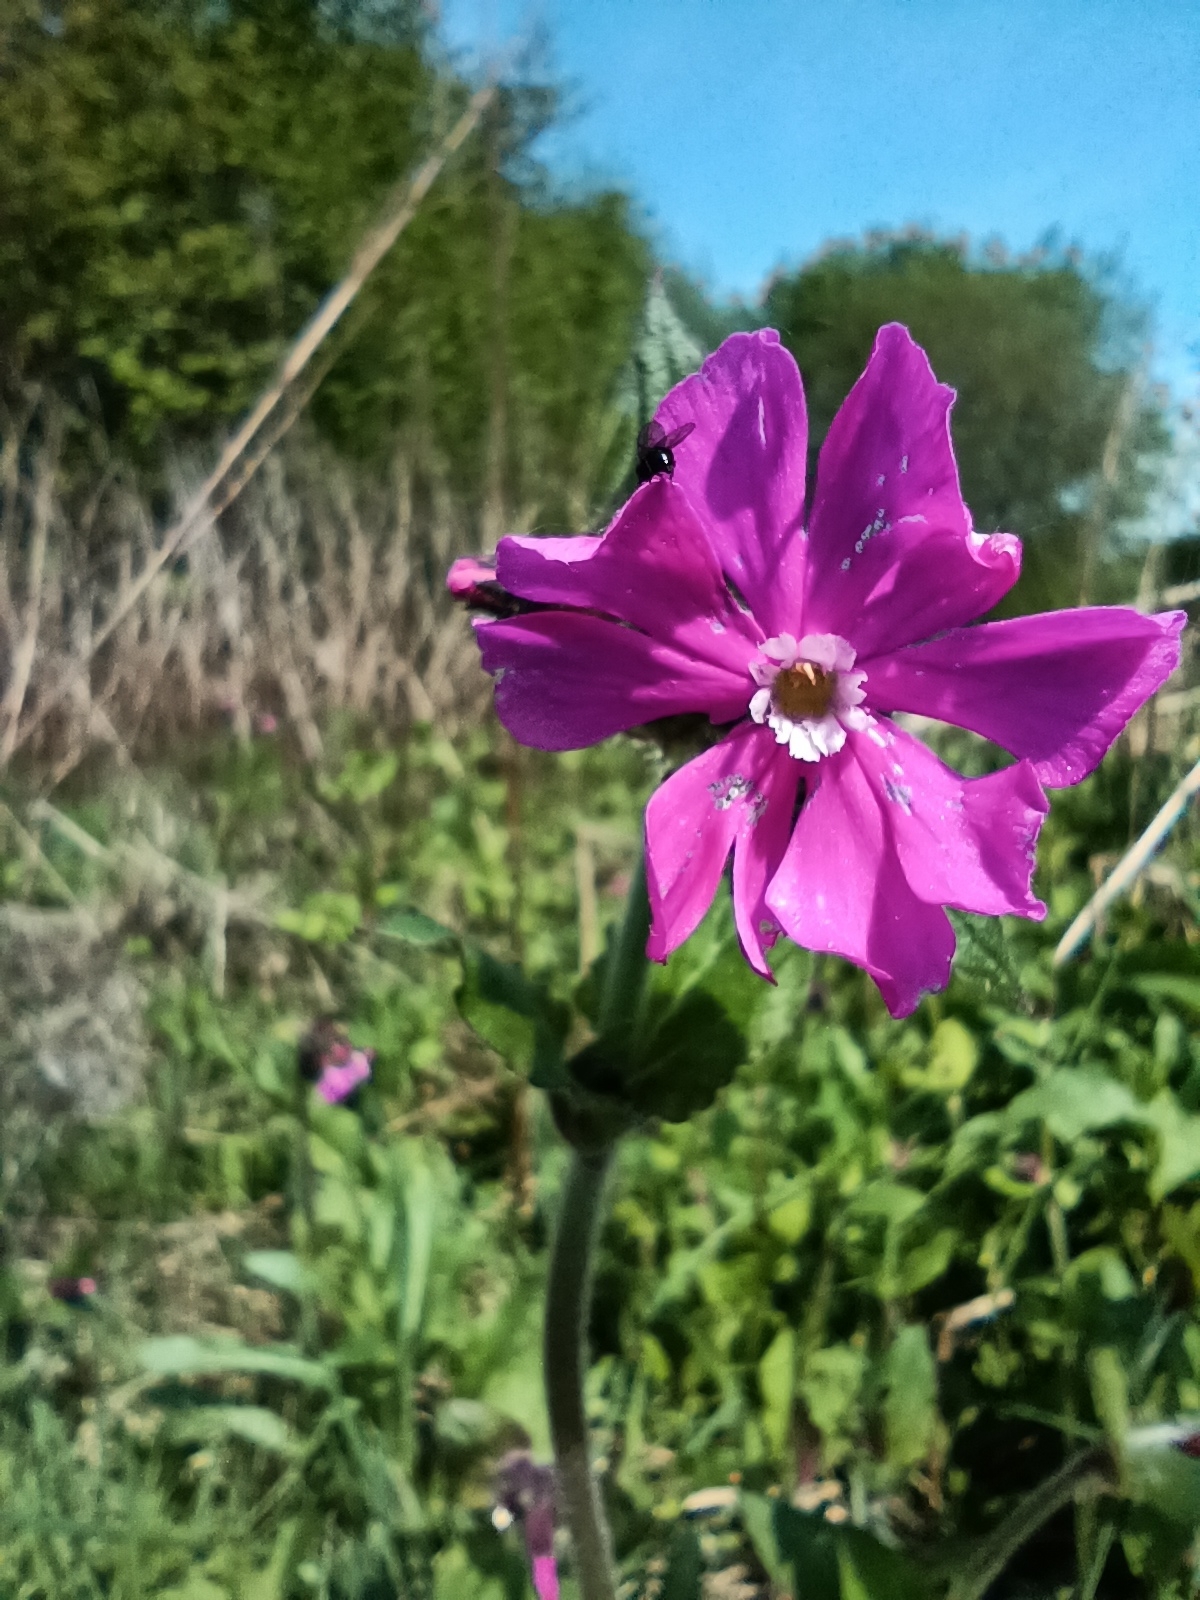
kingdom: Plantae
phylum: Tracheophyta
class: Magnoliopsida
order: Caryophyllales
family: Caryophyllaceae
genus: Silene
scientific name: Silene dioica
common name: Red campion
